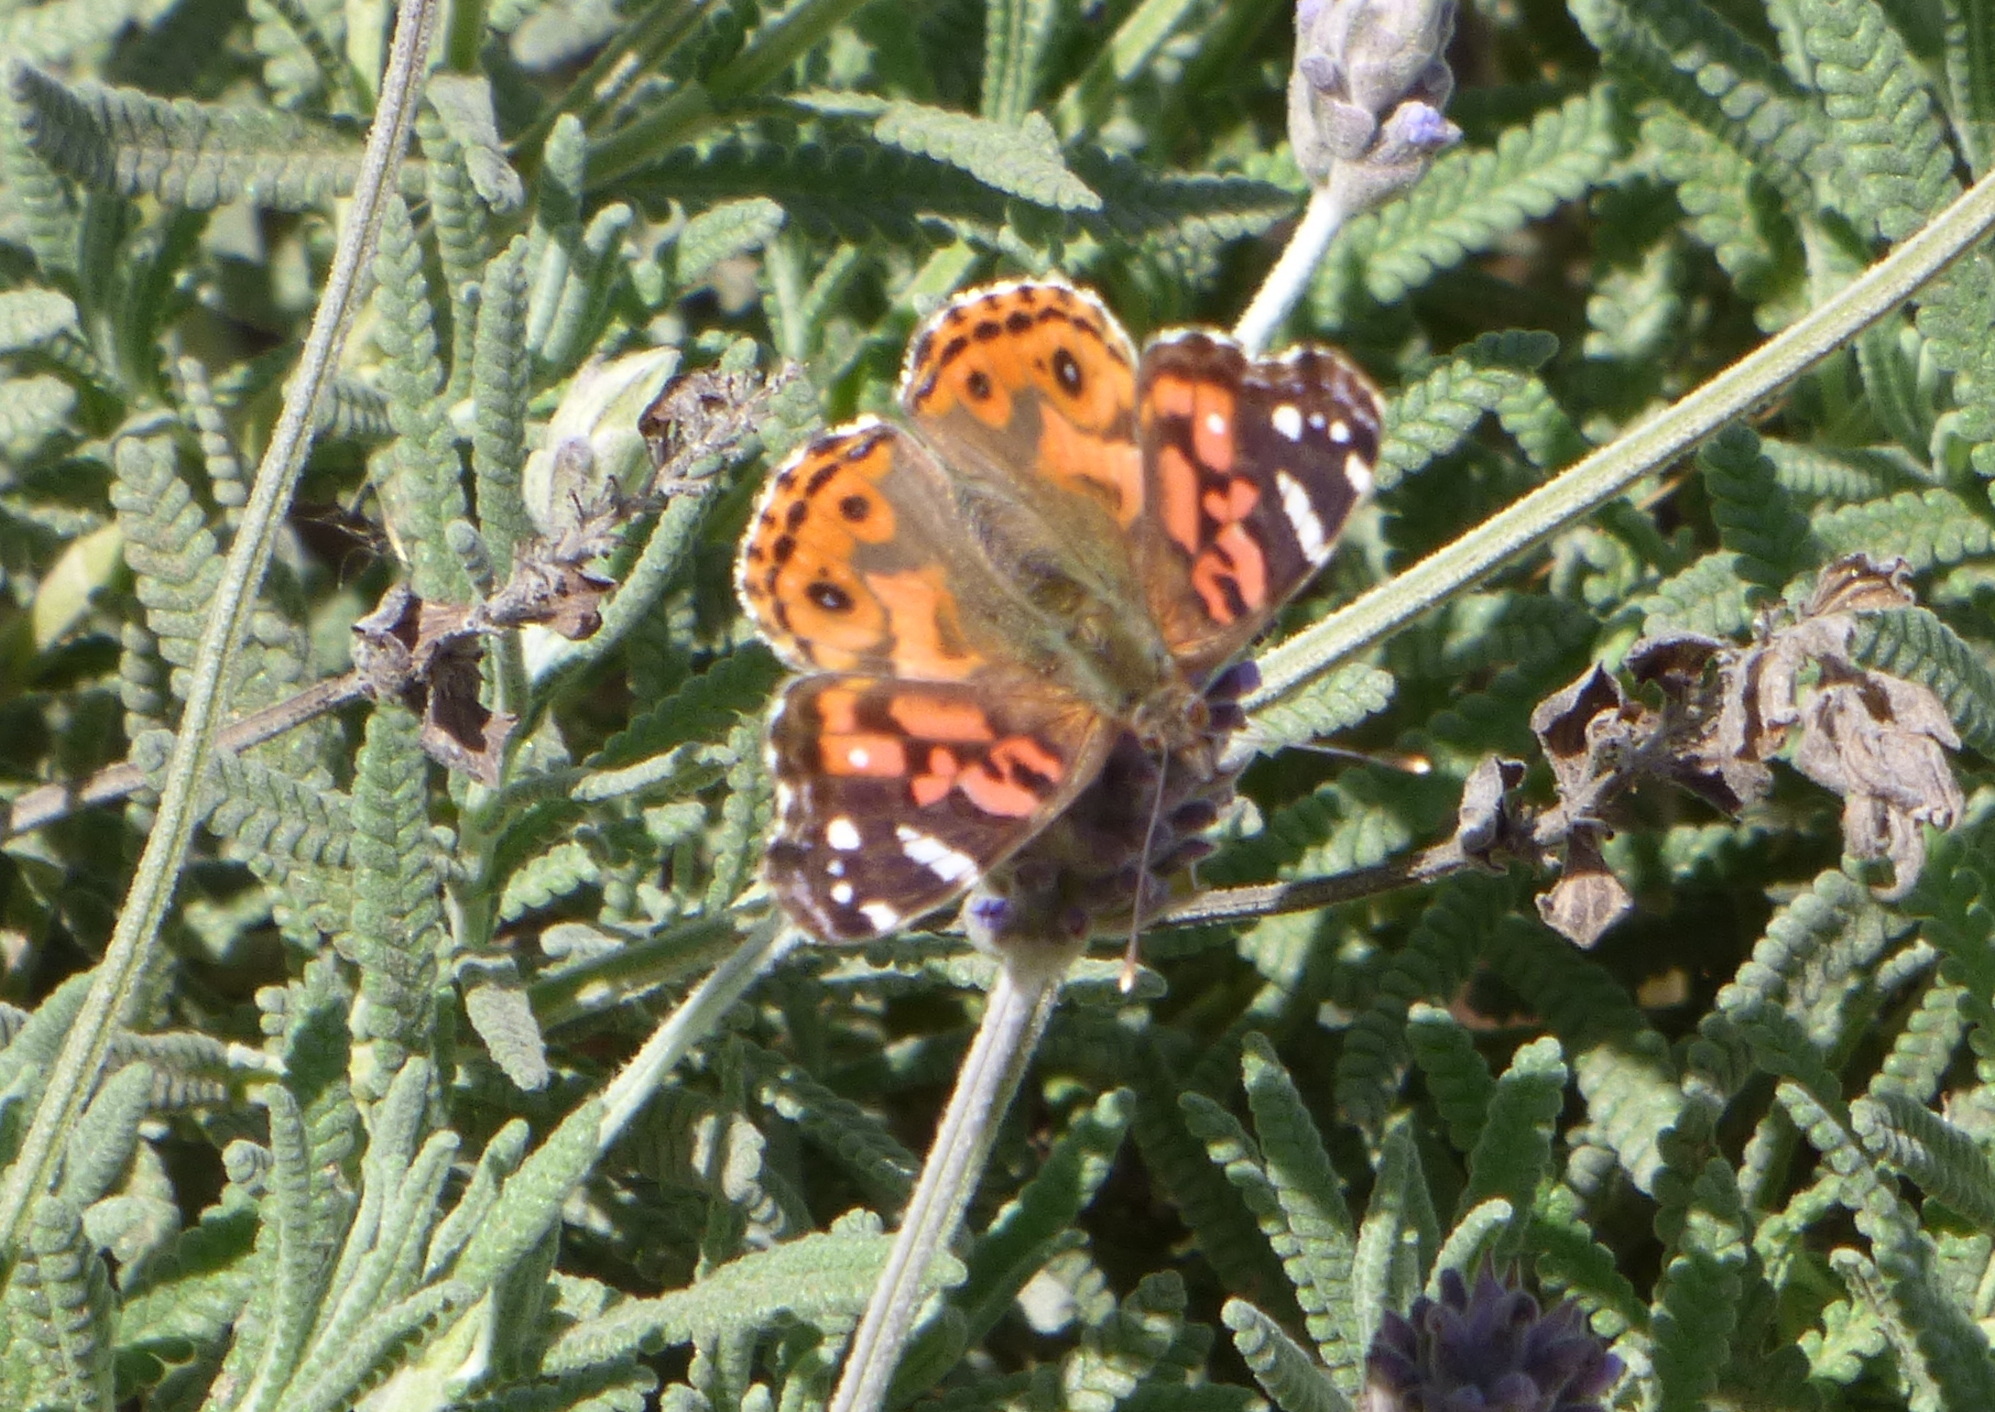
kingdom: Animalia
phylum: Arthropoda
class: Insecta
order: Lepidoptera
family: Nymphalidae
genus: Vanessa
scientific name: Vanessa braziliensis
